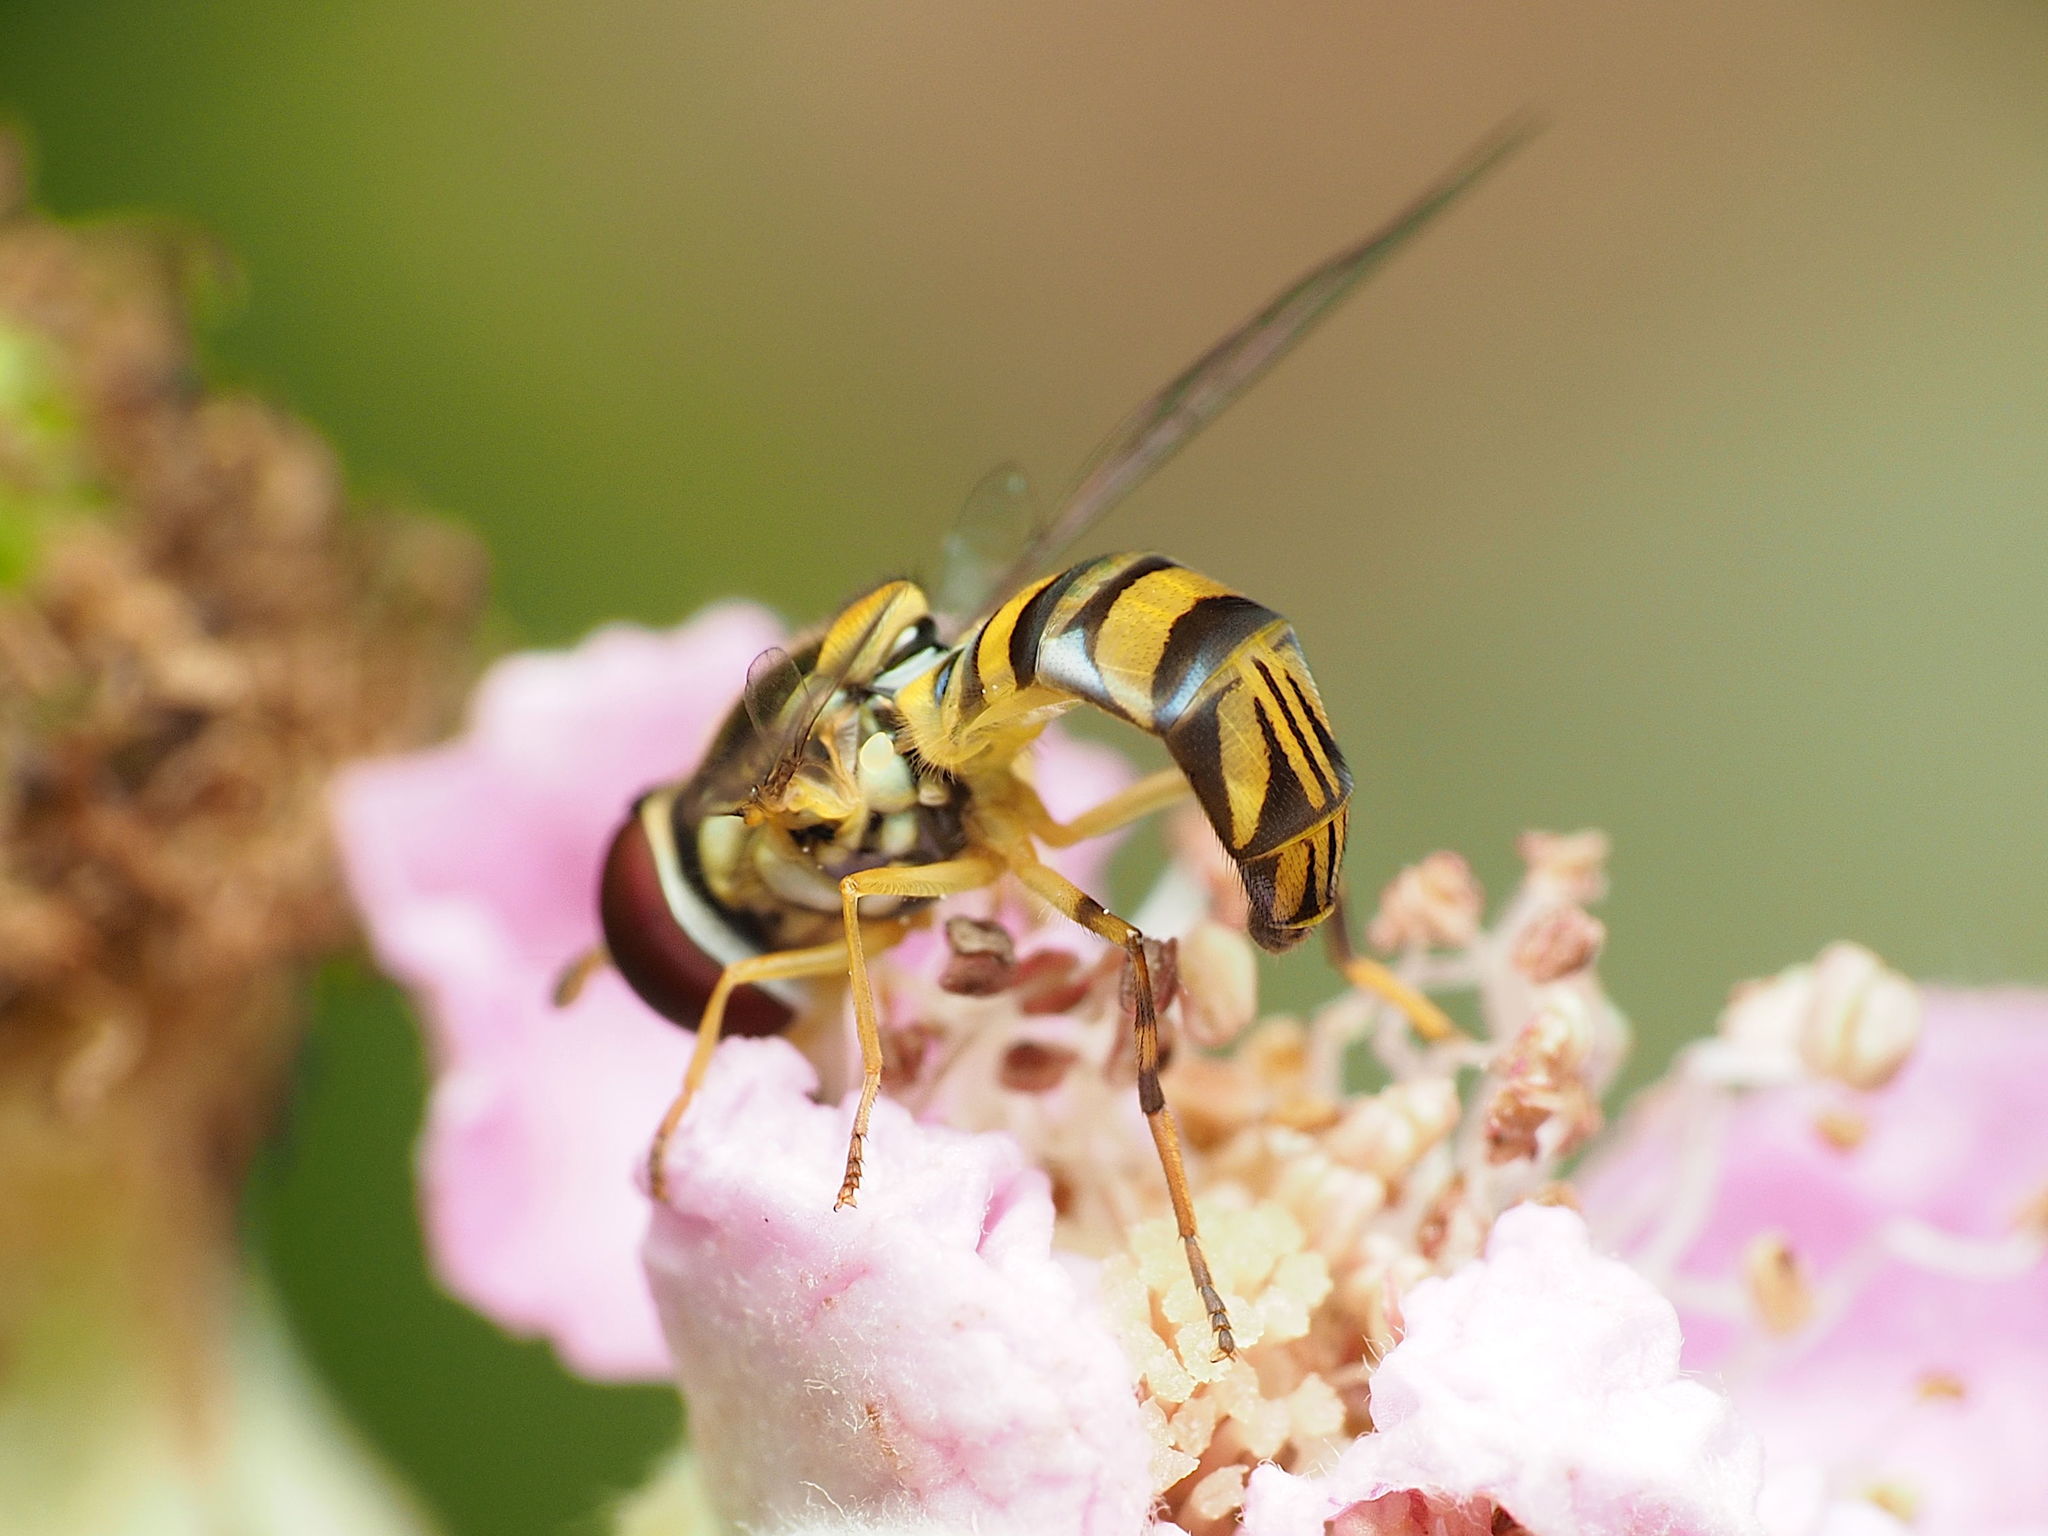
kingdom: Animalia
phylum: Arthropoda
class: Insecta
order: Diptera
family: Syrphidae
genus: Allograpta
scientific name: Allograpta obliqua
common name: Common oblique syrphid
